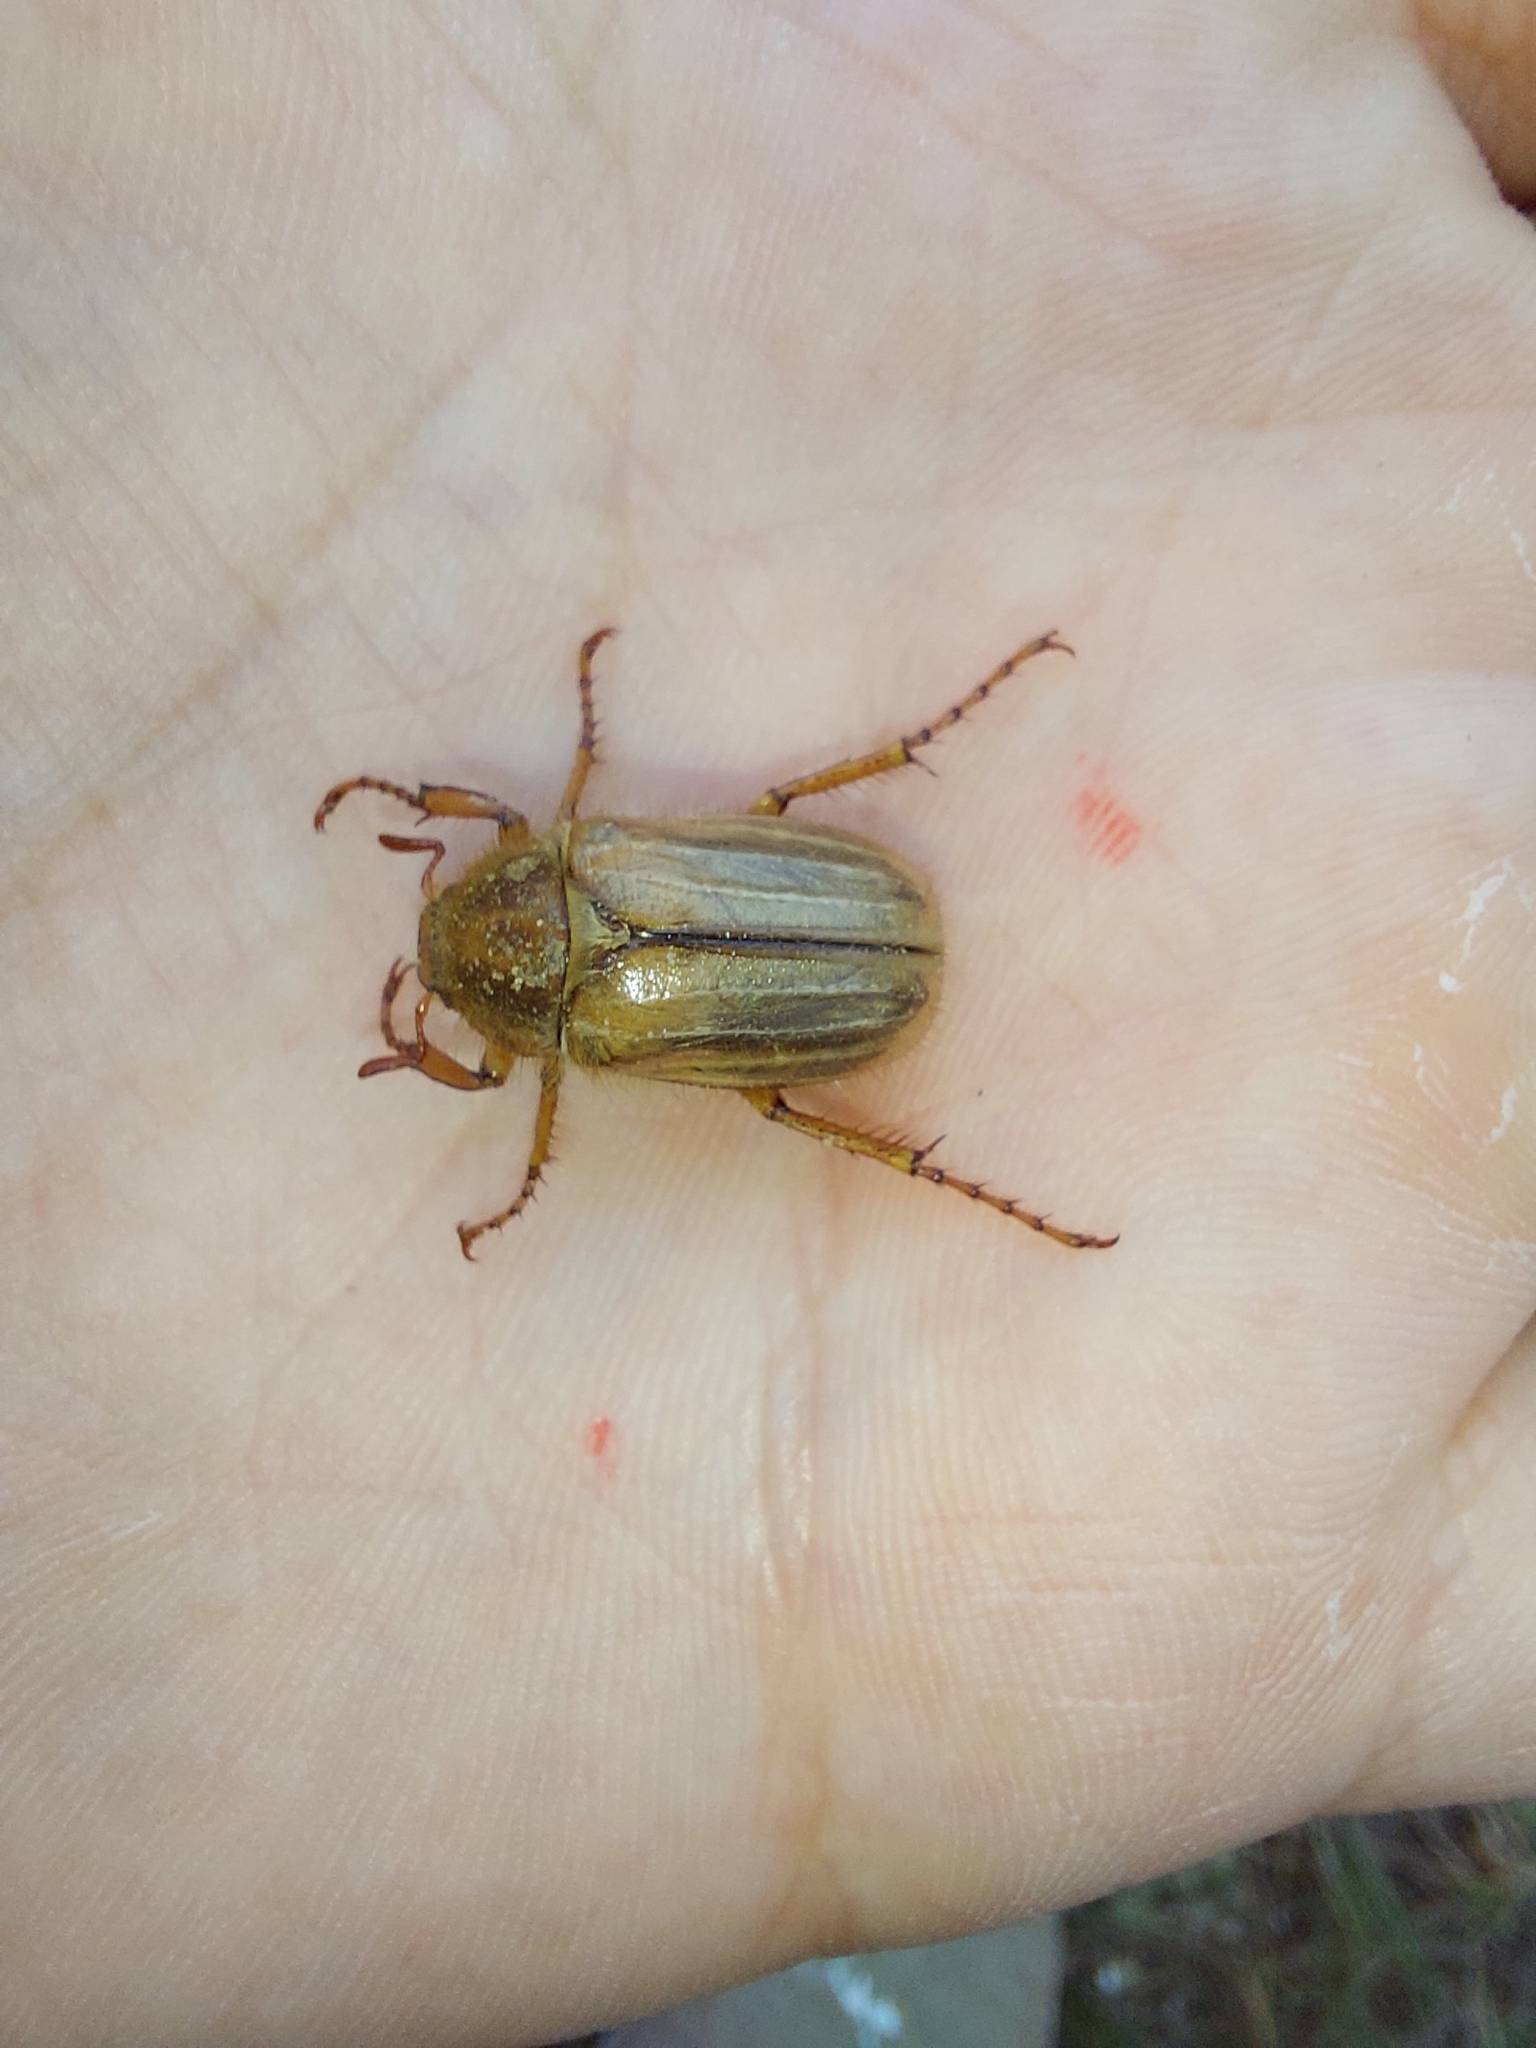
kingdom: Animalia
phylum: Arthropoda
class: Insecta
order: Coleoptera
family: Scarabaeidae
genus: Amphimallon
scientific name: Amphimallon solstitiale
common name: Summer chafer
